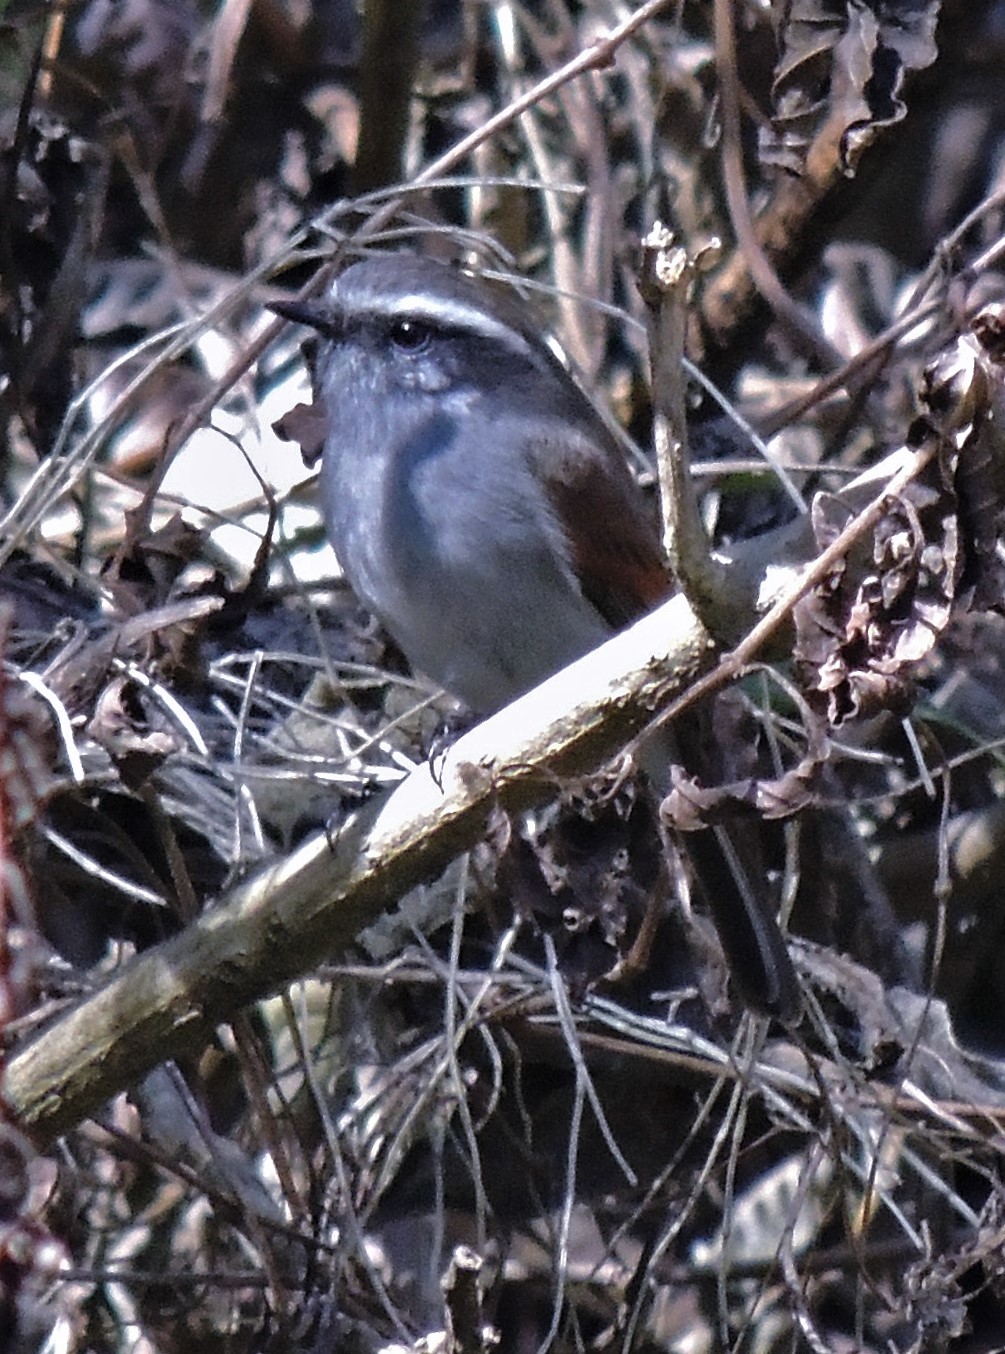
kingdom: Animalia
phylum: Chordata
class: Aves
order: Passeriformes
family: Tyrannidae
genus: Ochthoeca
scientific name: Ochthoeca leucophrys
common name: White-browed chat-tyrant
